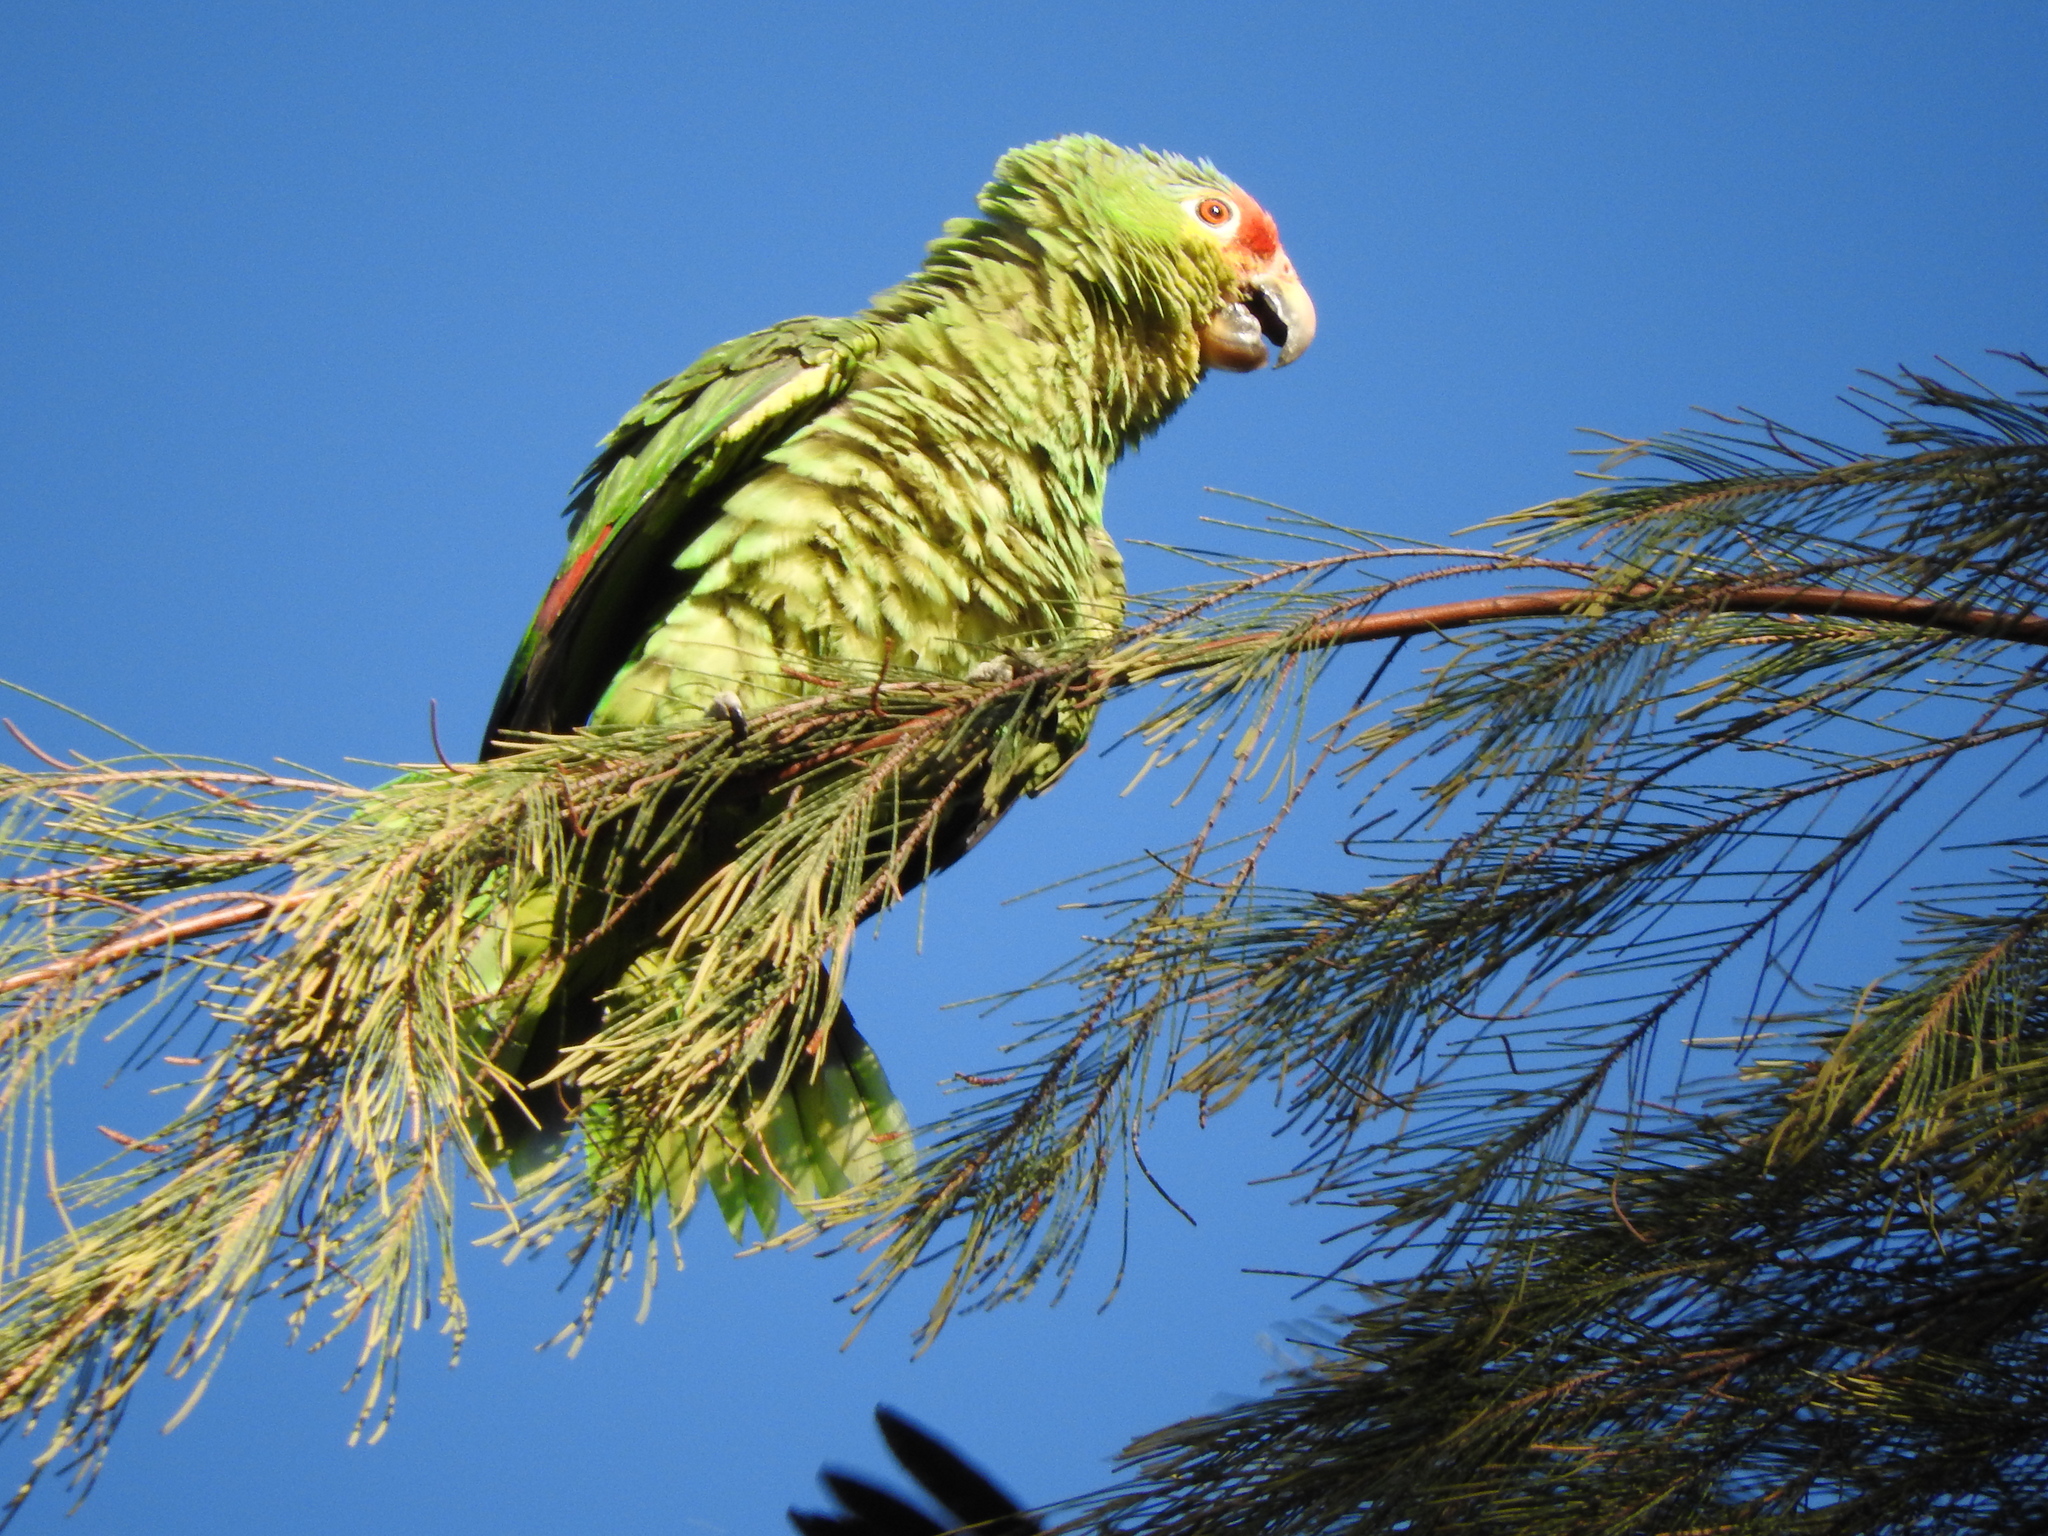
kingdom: Animalia
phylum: Chordata
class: Aves
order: Psittaciformes
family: Psittacidae
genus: Amazona
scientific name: Amazona autumnalis
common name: Red-lored amazon
